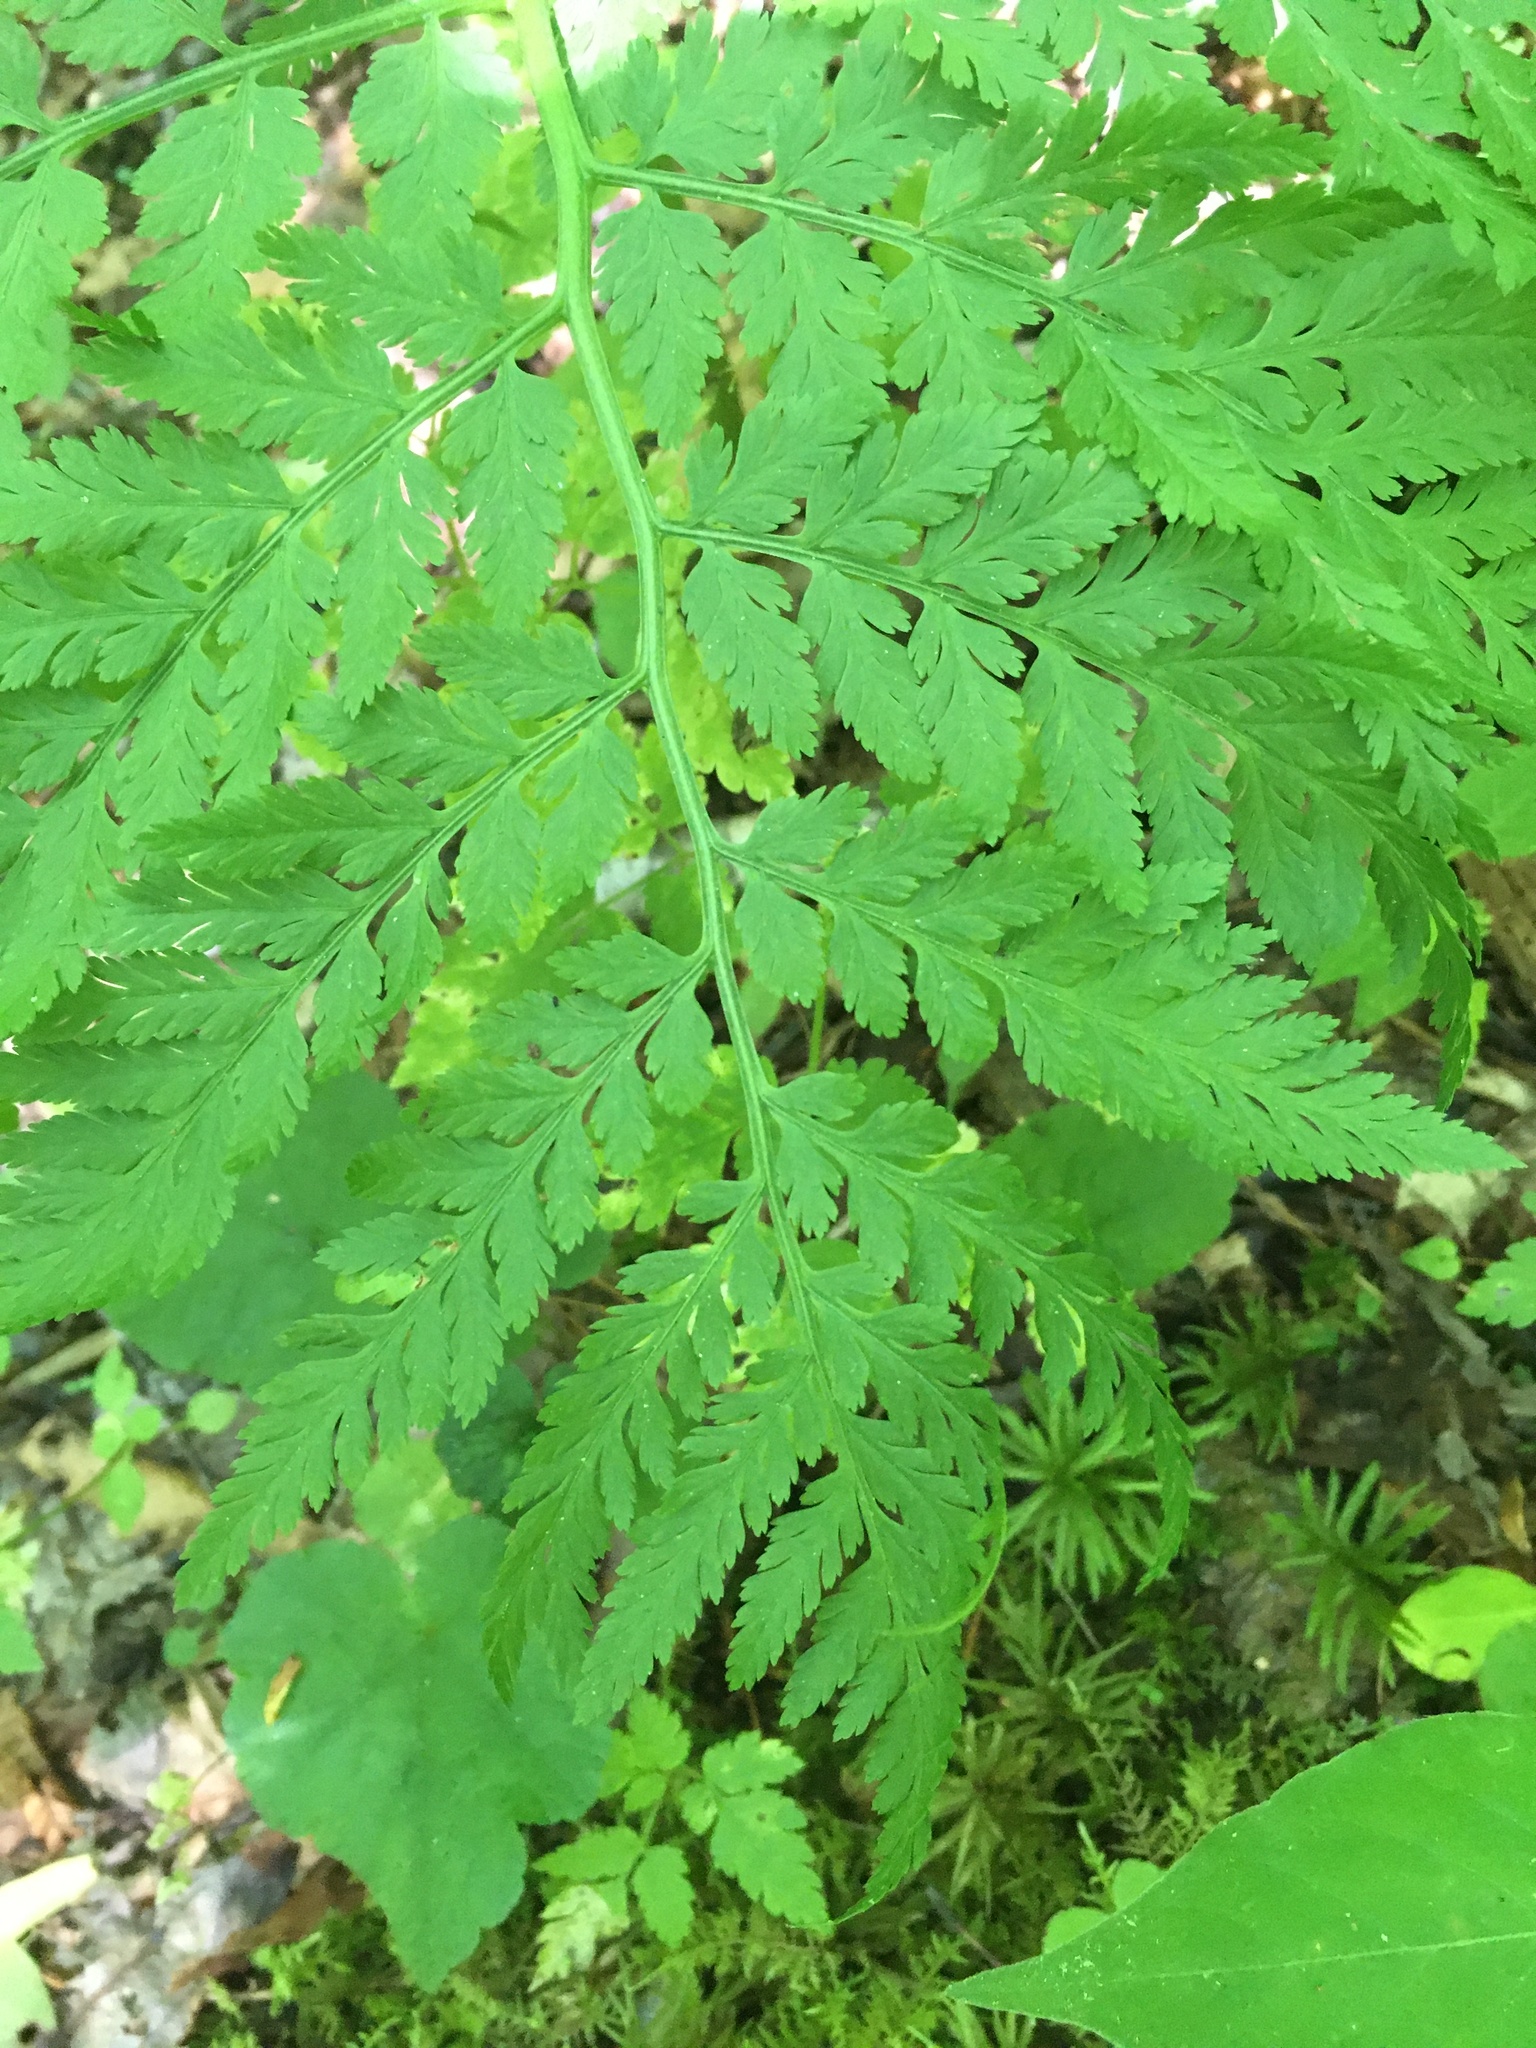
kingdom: Plantae
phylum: Tracheophyta
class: Polypodiopsida
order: Ophioglossales
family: Ophioglossaceae
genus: Botrypus
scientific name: Botrypus virginianus
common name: Common grapefern
